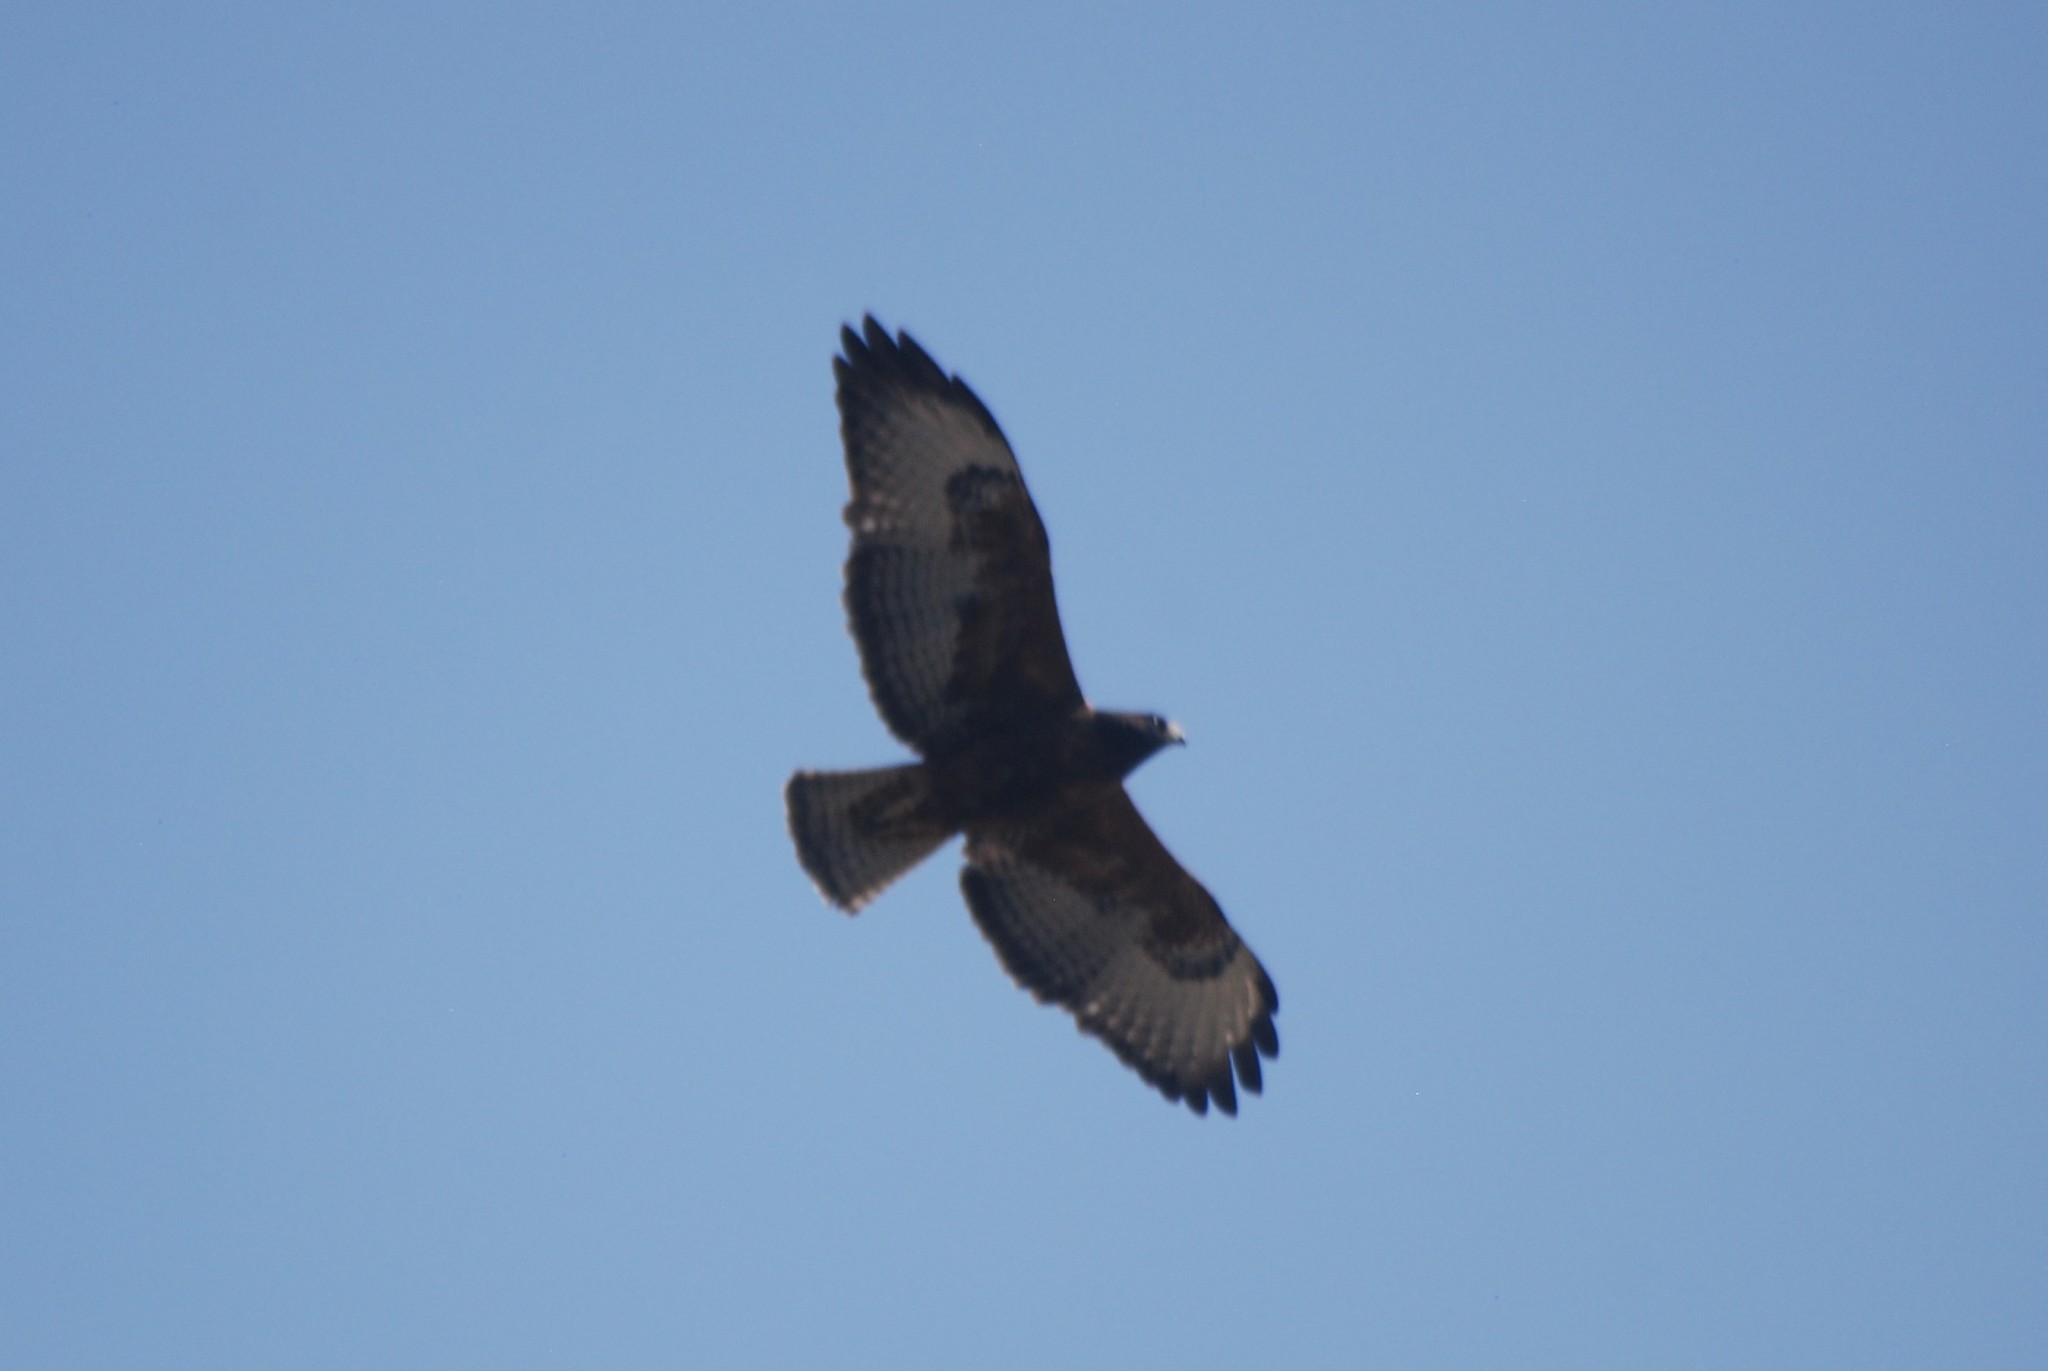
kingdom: Animalia
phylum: Chordata
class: Aves
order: Accipitriformes
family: Accipitridae
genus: Buteo
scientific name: Buteo jamaicensis
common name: Red-tailed hawk
